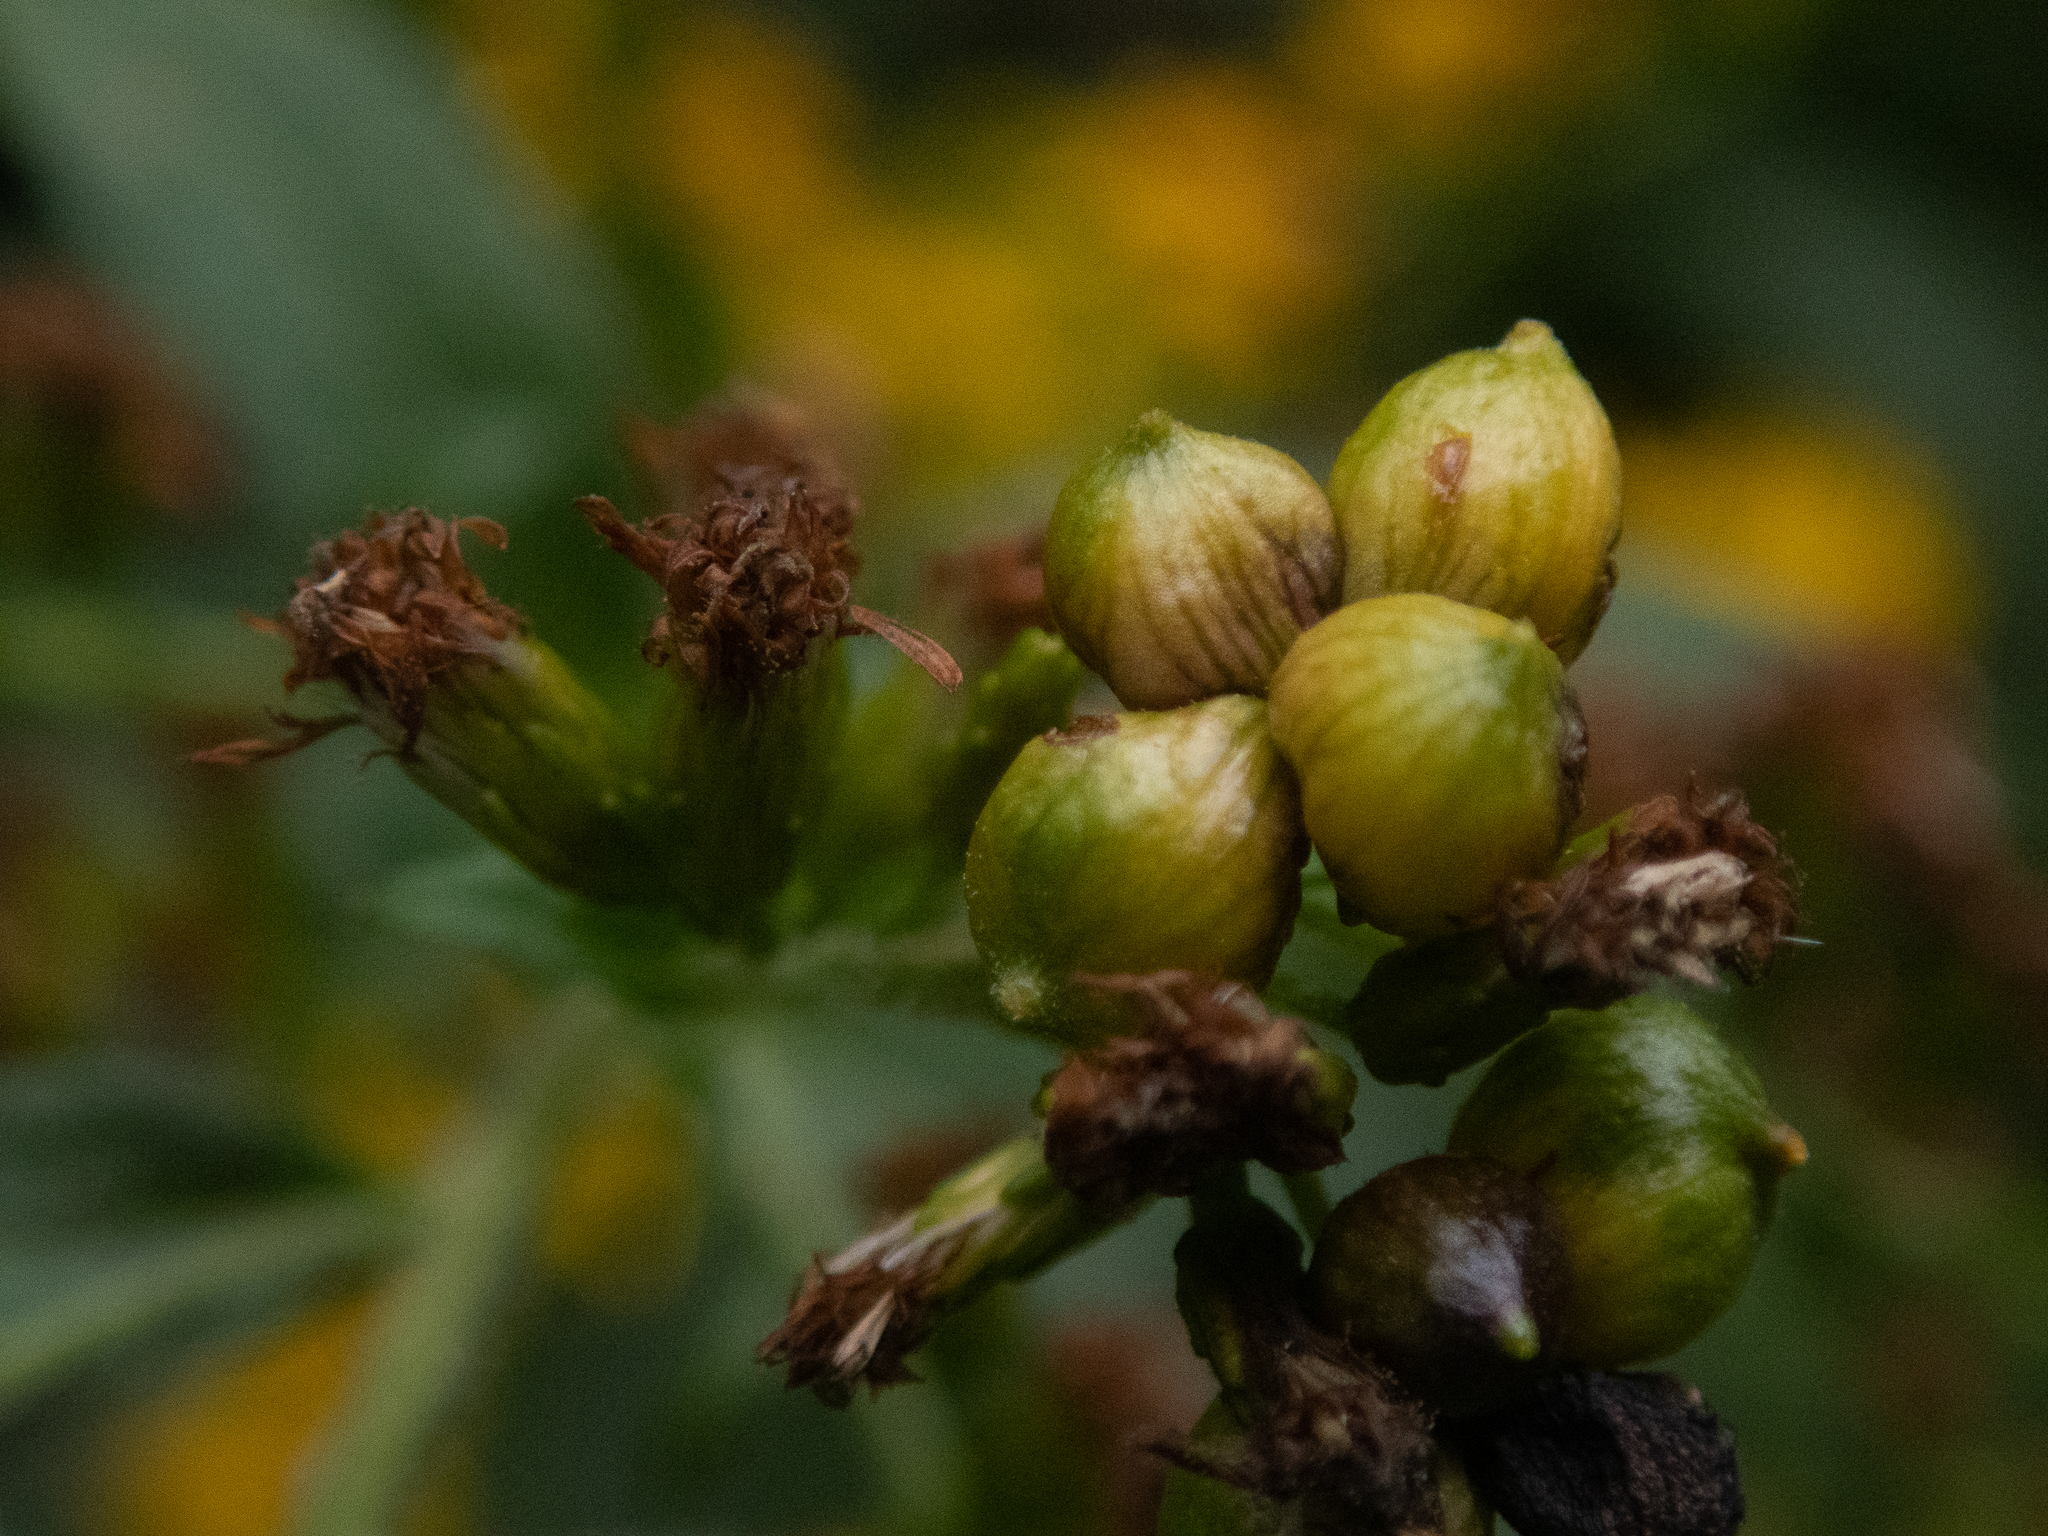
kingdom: Animalia
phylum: Arthropoda
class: Insecta
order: Diptera
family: Cecidomyiidae
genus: Schizomyia
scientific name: Schizomyia racemicola
